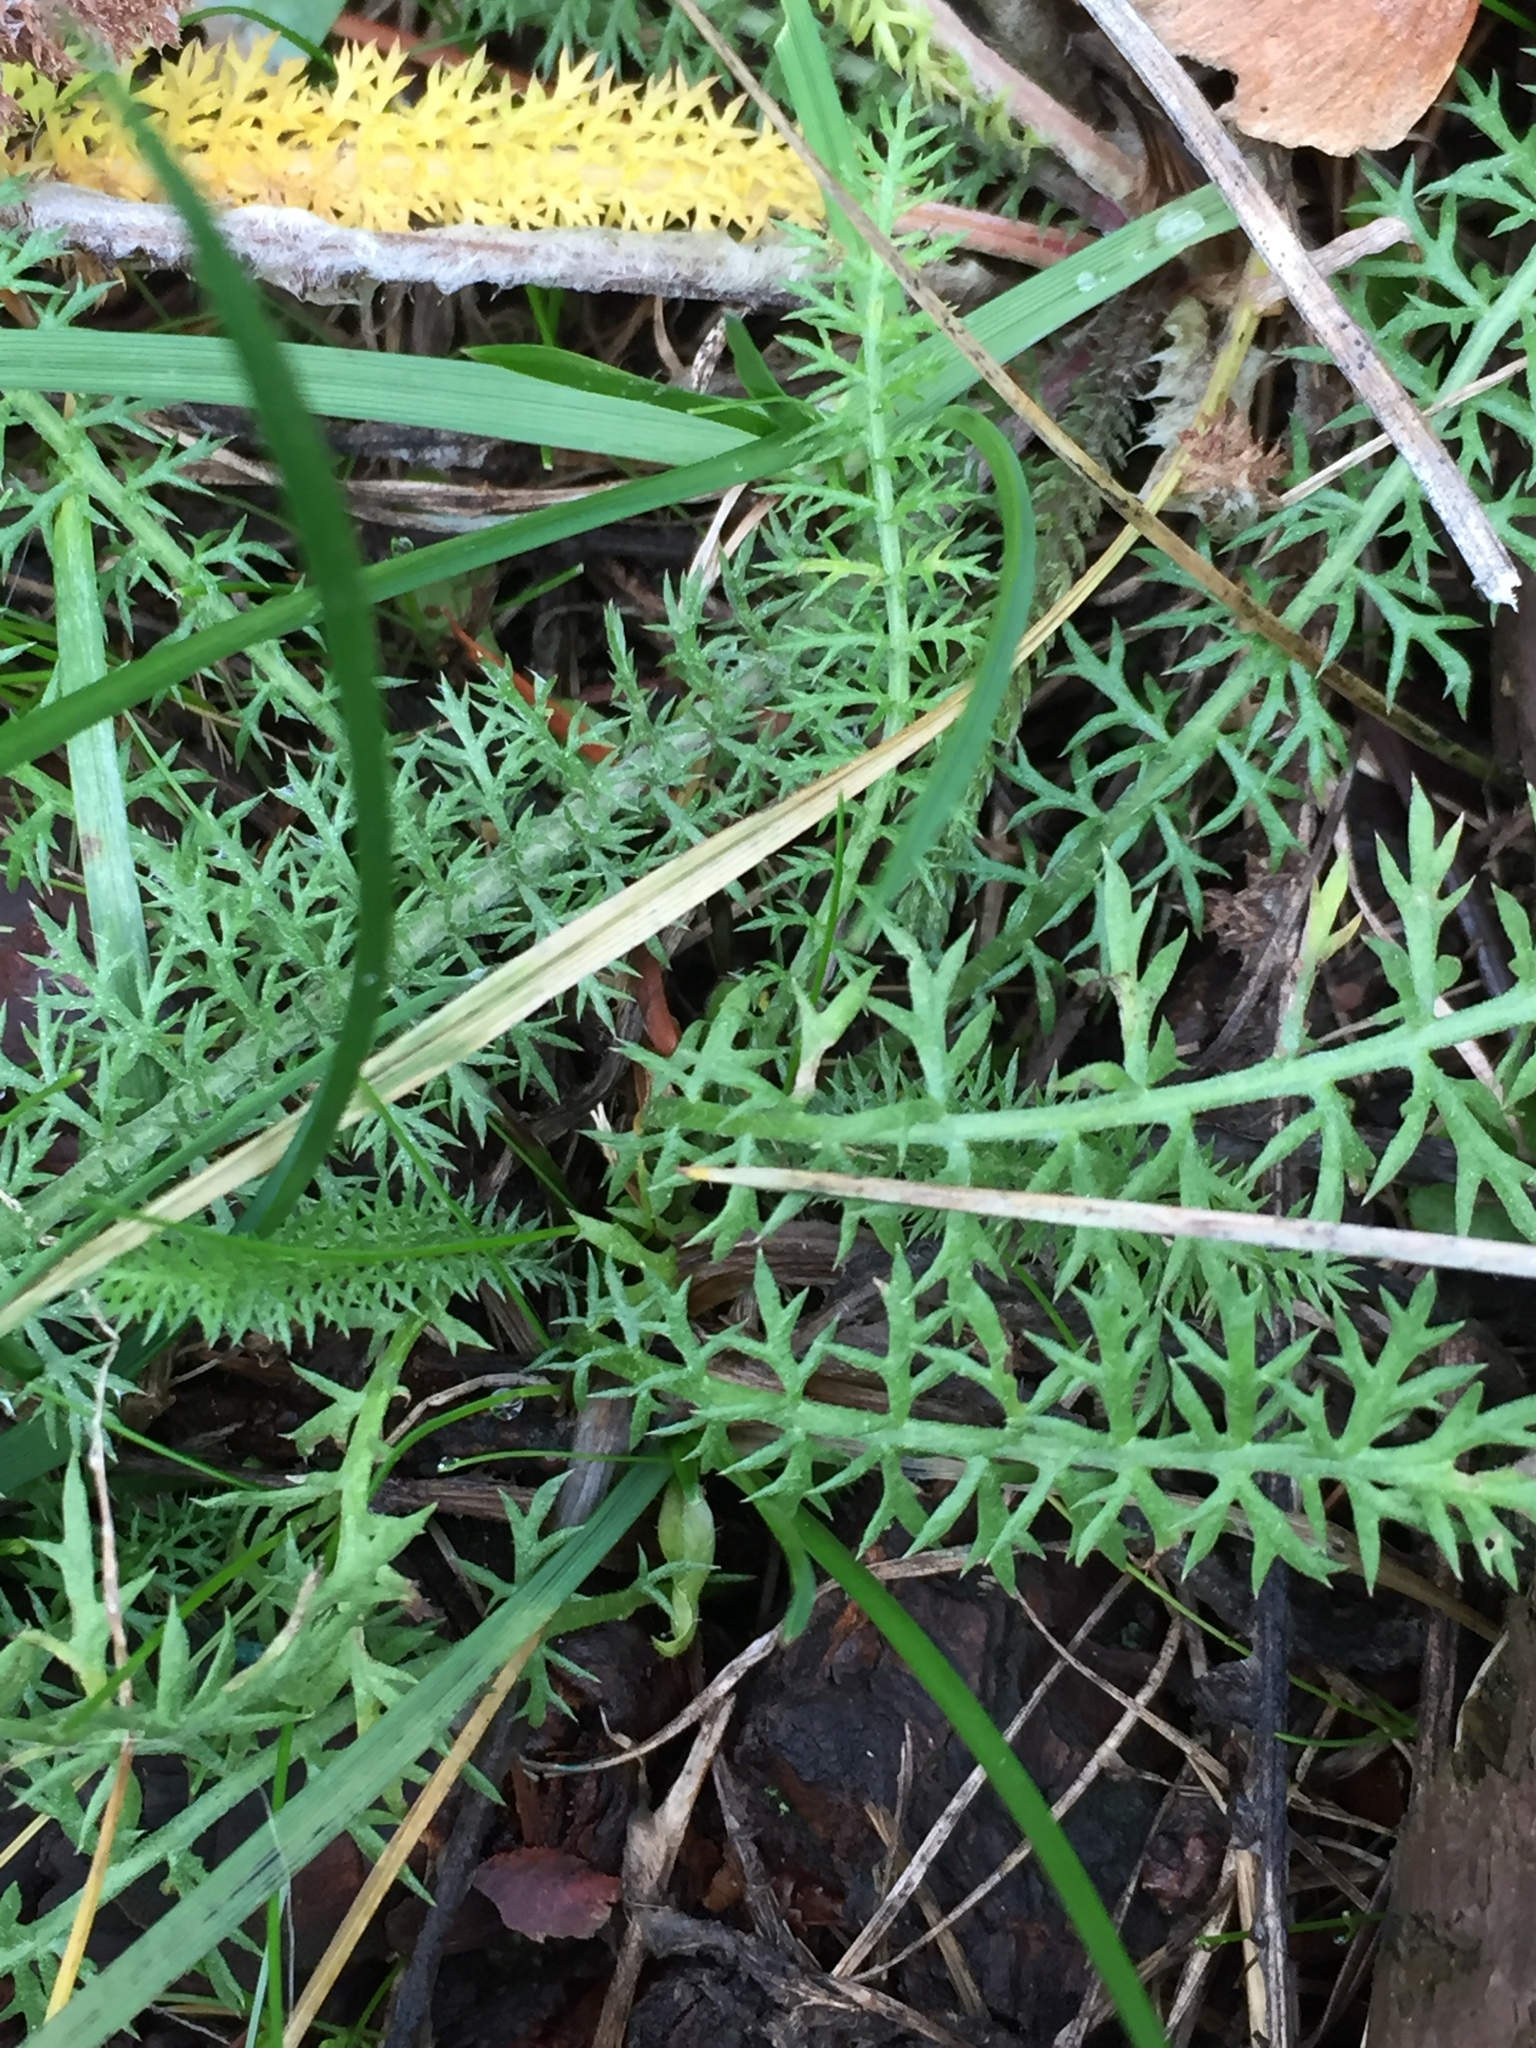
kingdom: Plantae
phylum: Tracheophyta
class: Magnoliopsida
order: Asterales
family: Asteraceae
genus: Achillea
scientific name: Achillea millefolium
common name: Yarrow
